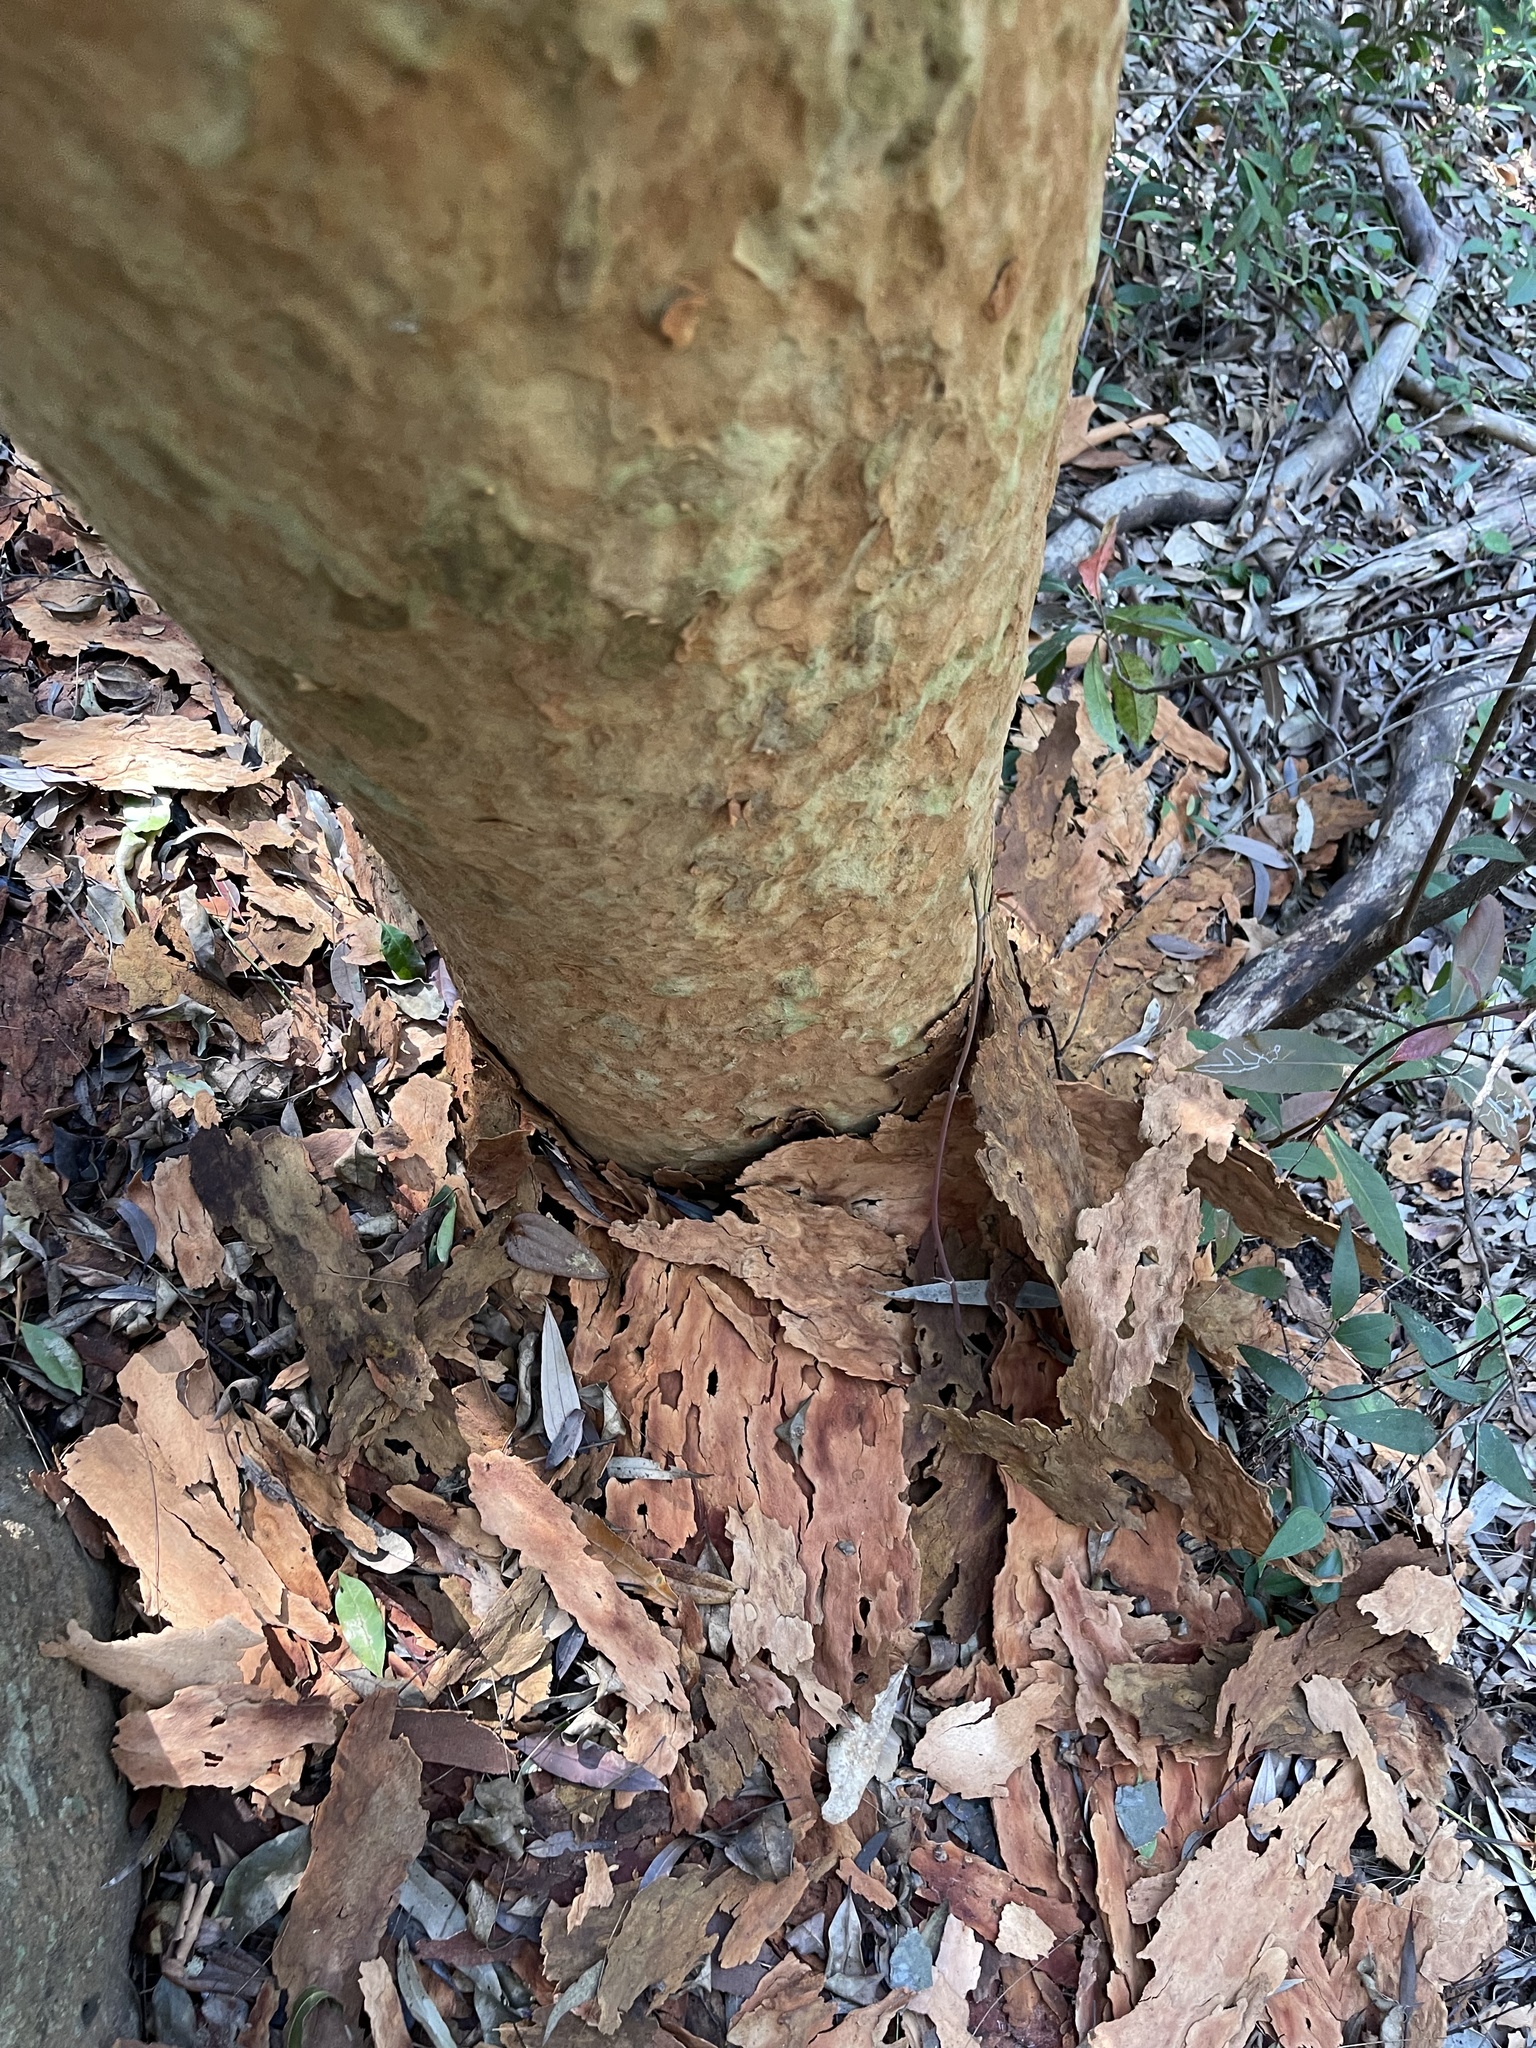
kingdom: Plantae
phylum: Tracheophyta
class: Magnoliopsida
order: Myrtales
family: Myrtaceae
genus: Angophora
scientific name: Angophora costata
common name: Gum myrtle
